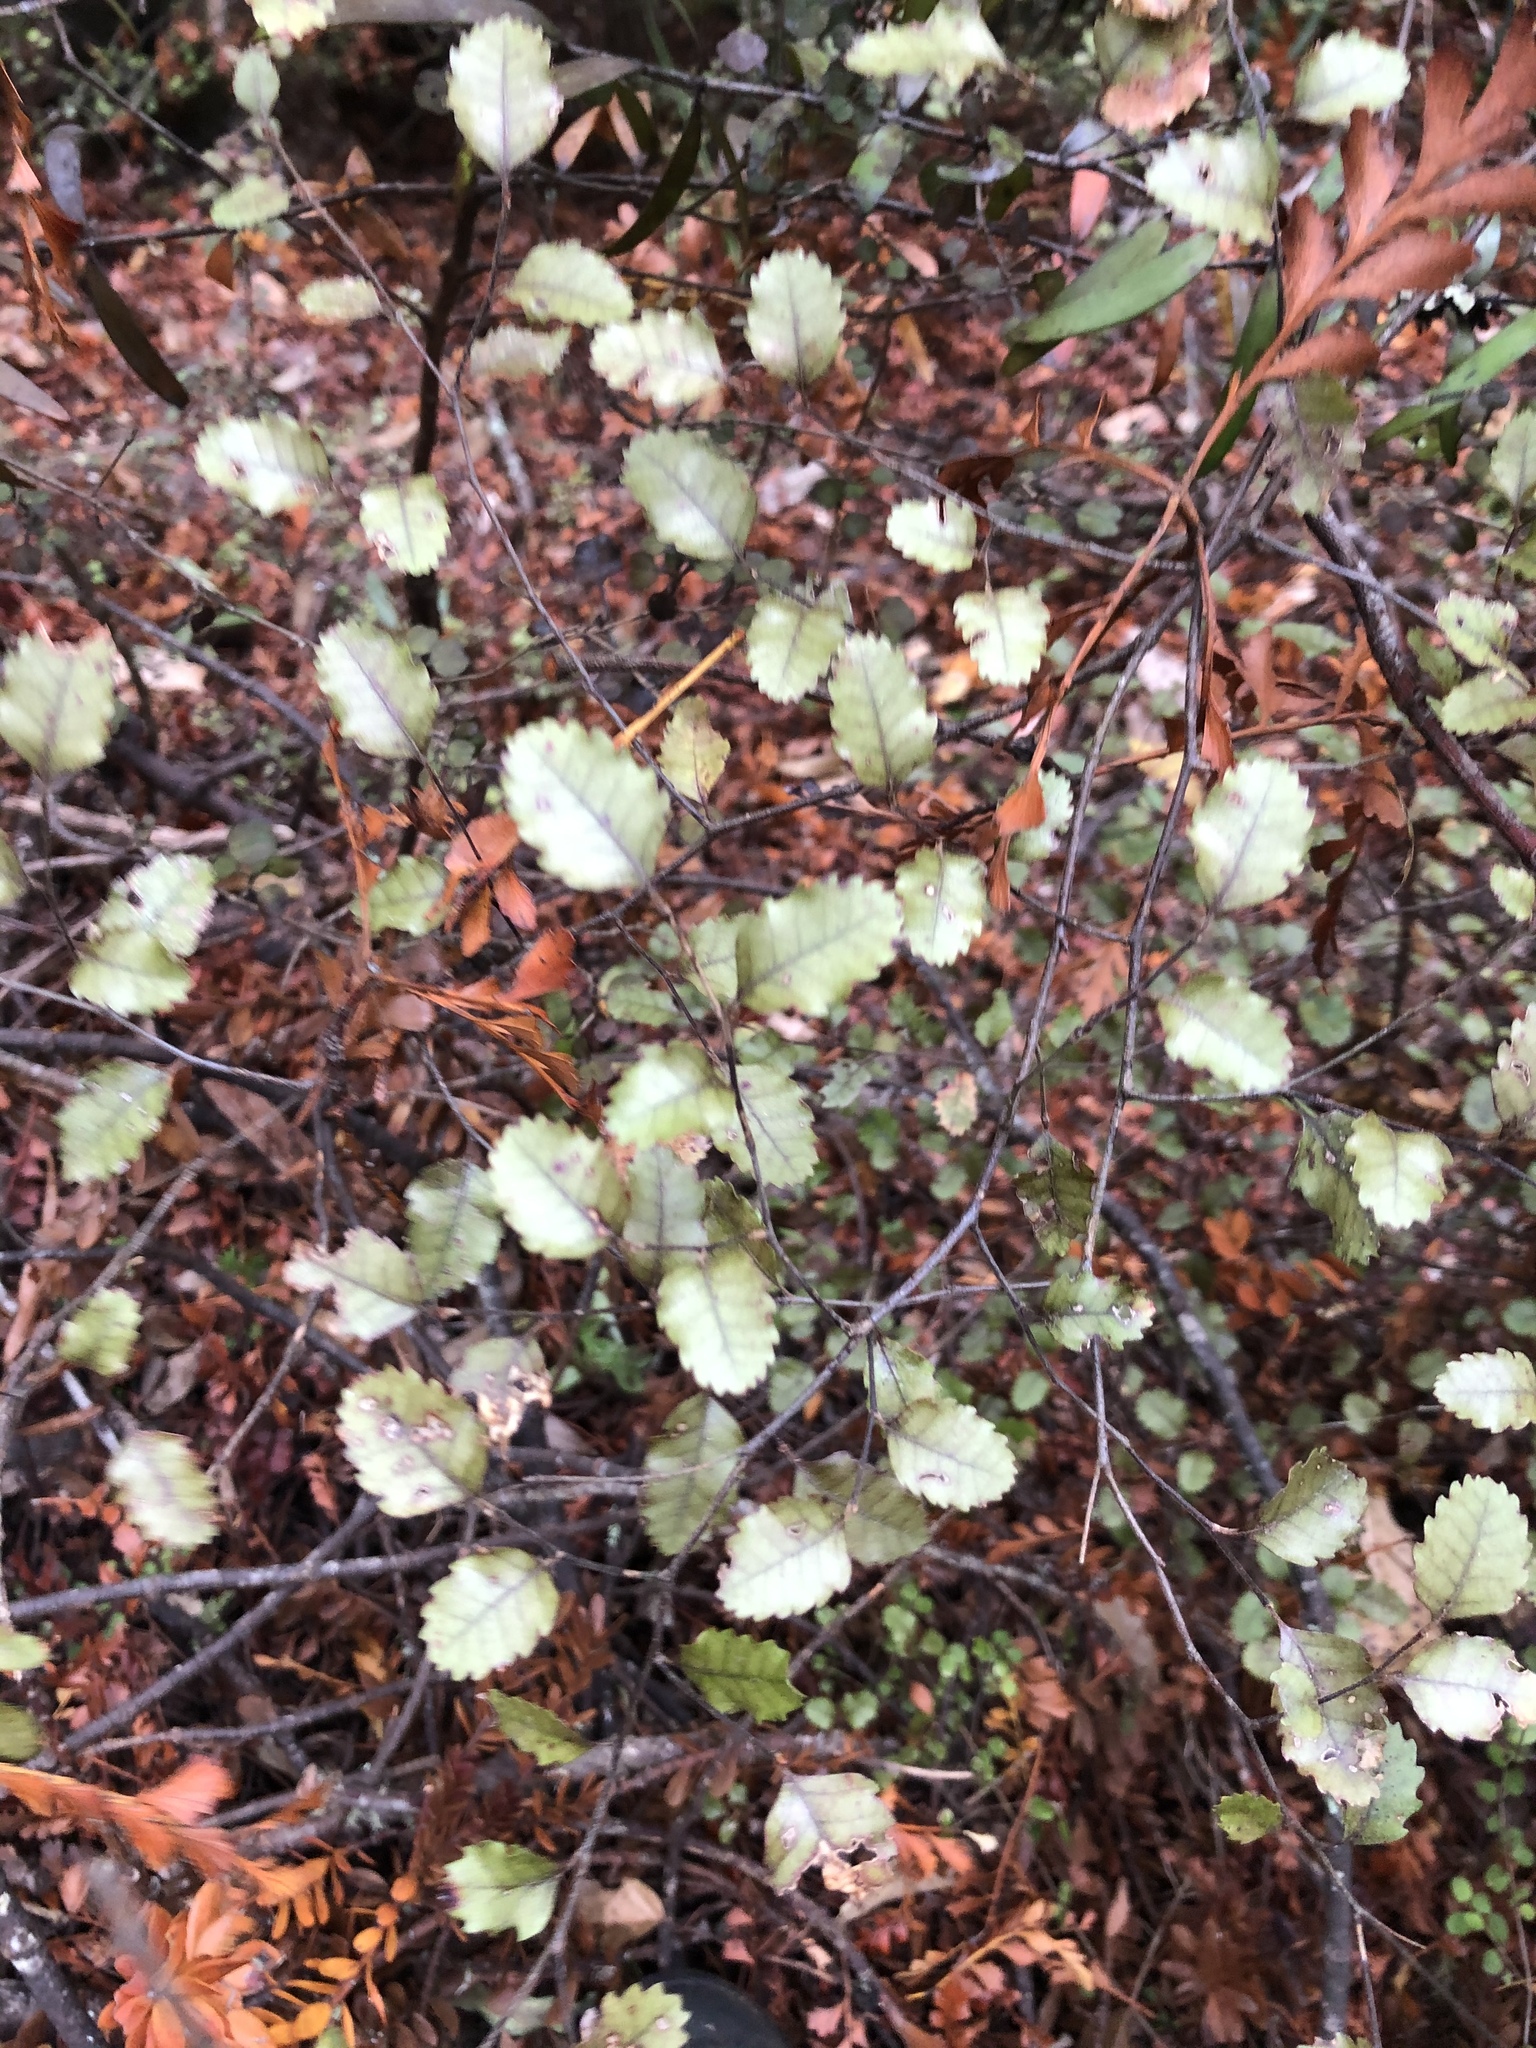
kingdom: Plantae
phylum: Tracheophyta
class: Magnoliopsida
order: Fagales
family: Nothofagaceae
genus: Nothofagus
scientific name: Nothofagus truncata
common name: Hard beech
